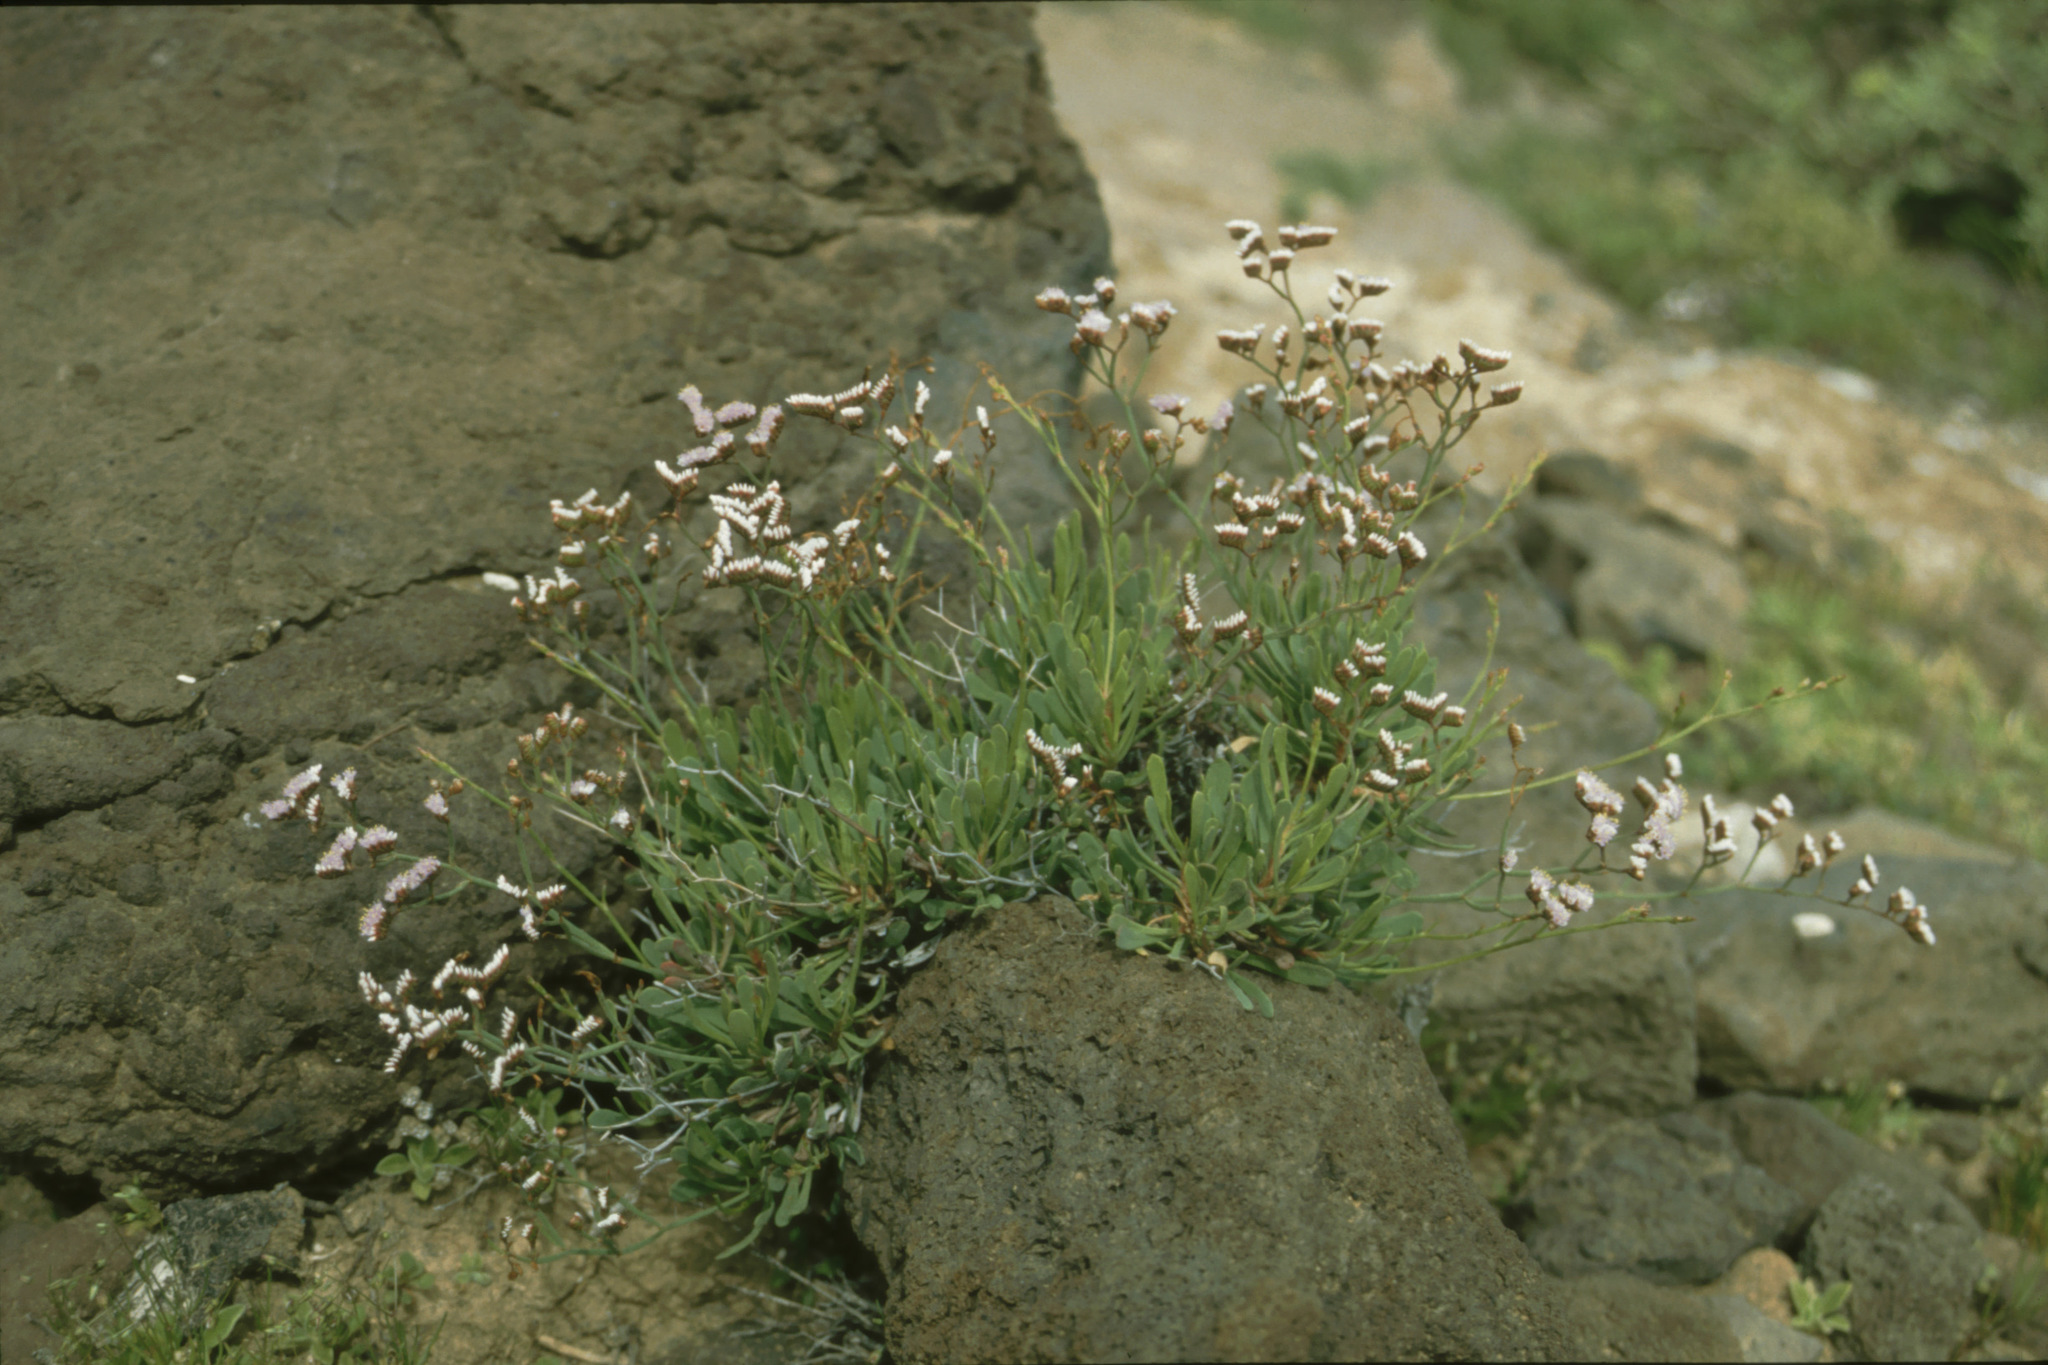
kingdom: Plantae
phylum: Tracheophyta
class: Magnoliopsida
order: Caryophyllales
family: Plumbaginaceae
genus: Limonium
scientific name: Limonium pectinatum
